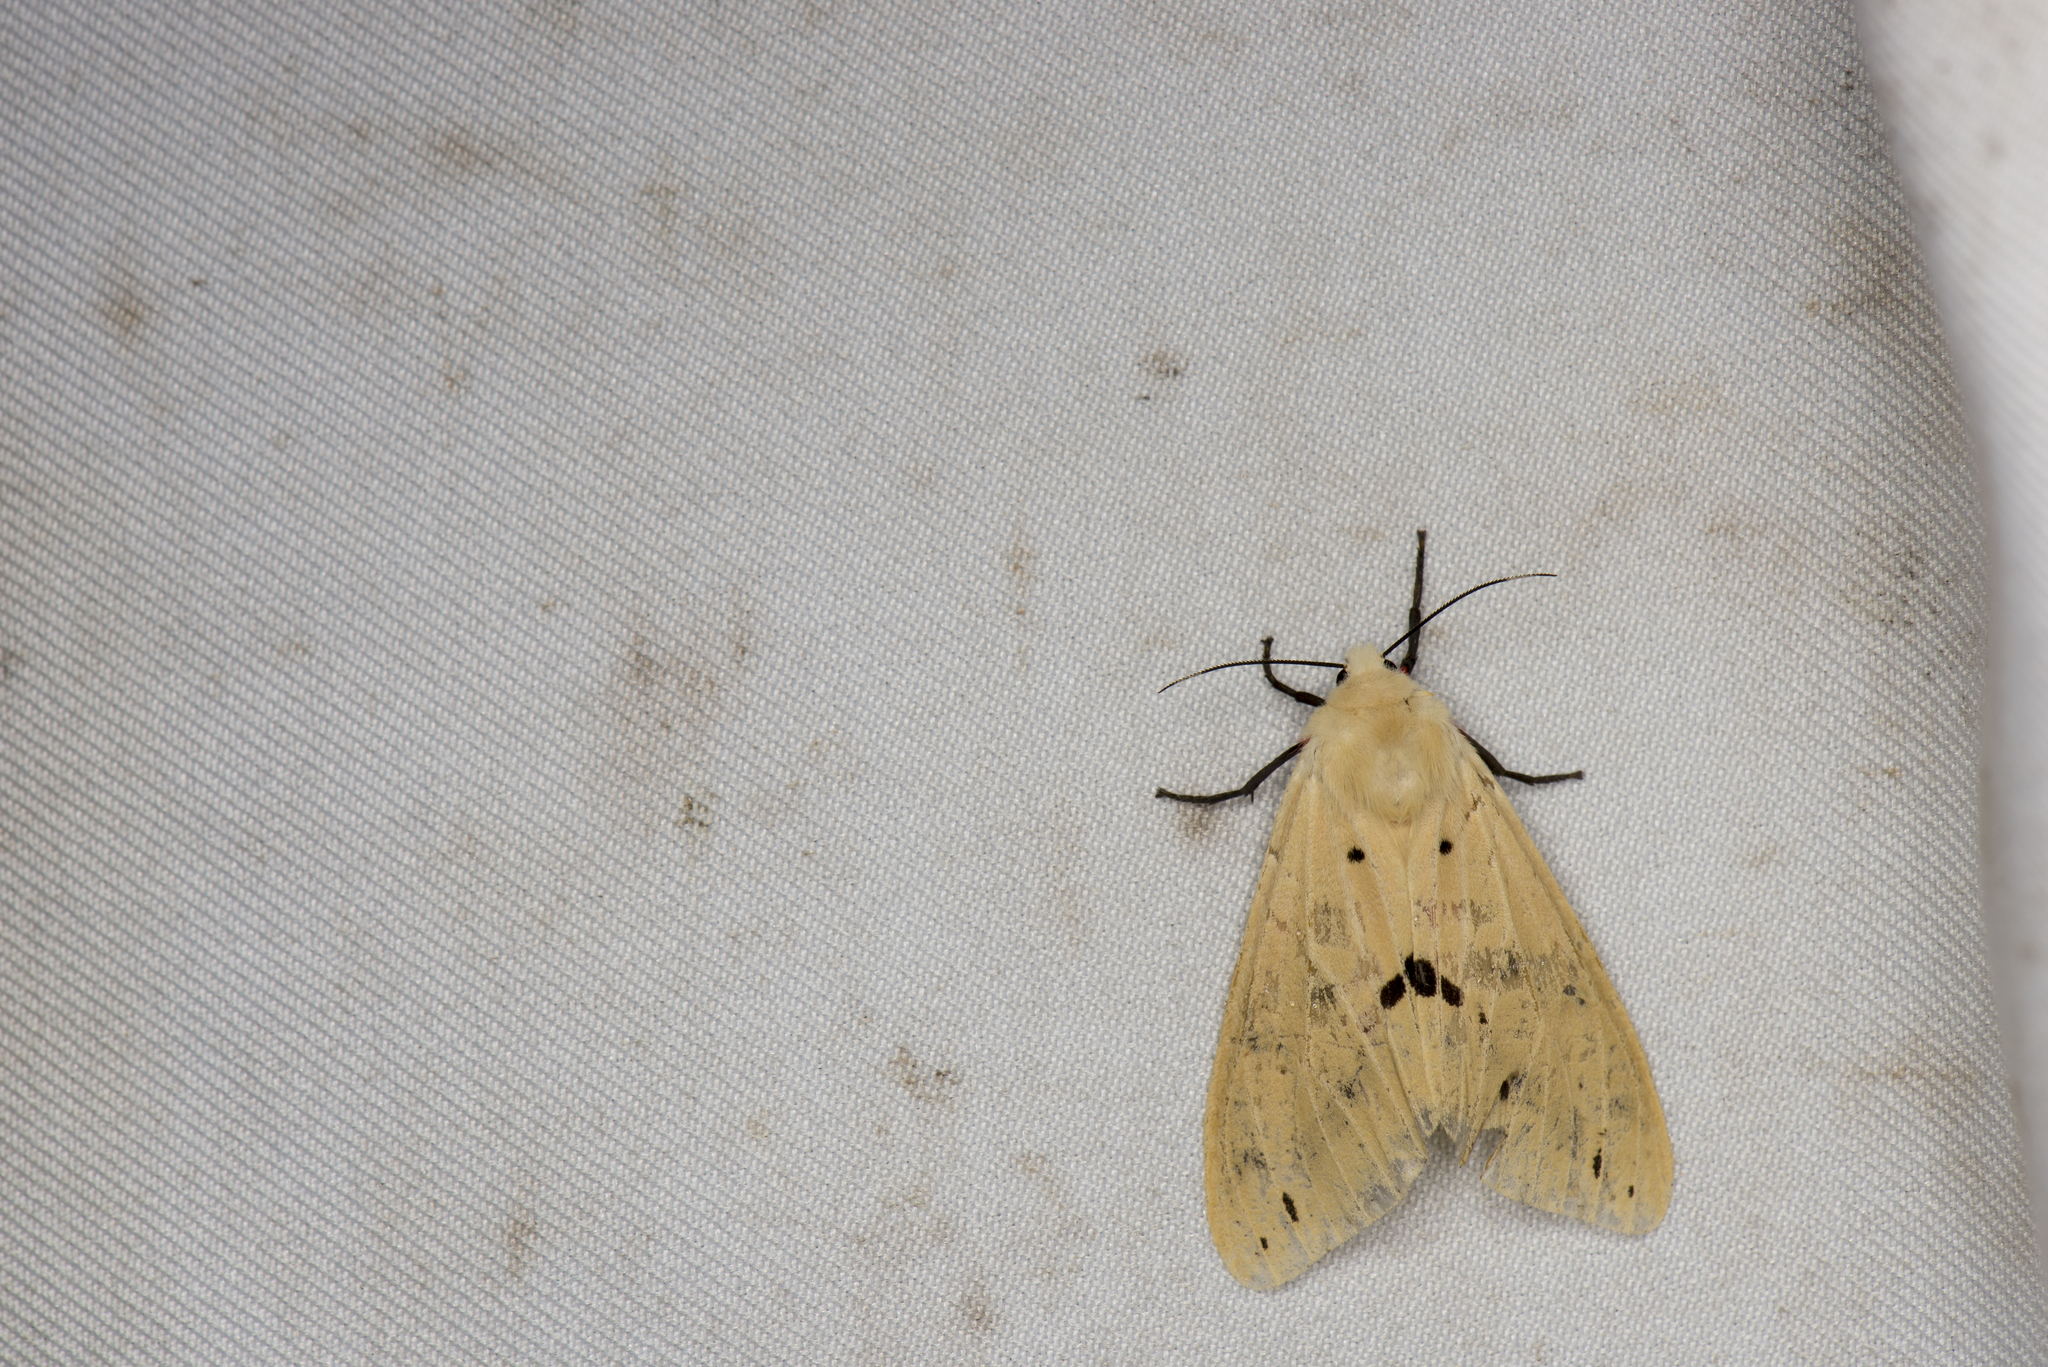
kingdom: Animalia
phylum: Arthropoda
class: Insecta
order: Lepidoptera
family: Erebidae
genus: Spilarctia
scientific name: Spilarctia nydia
